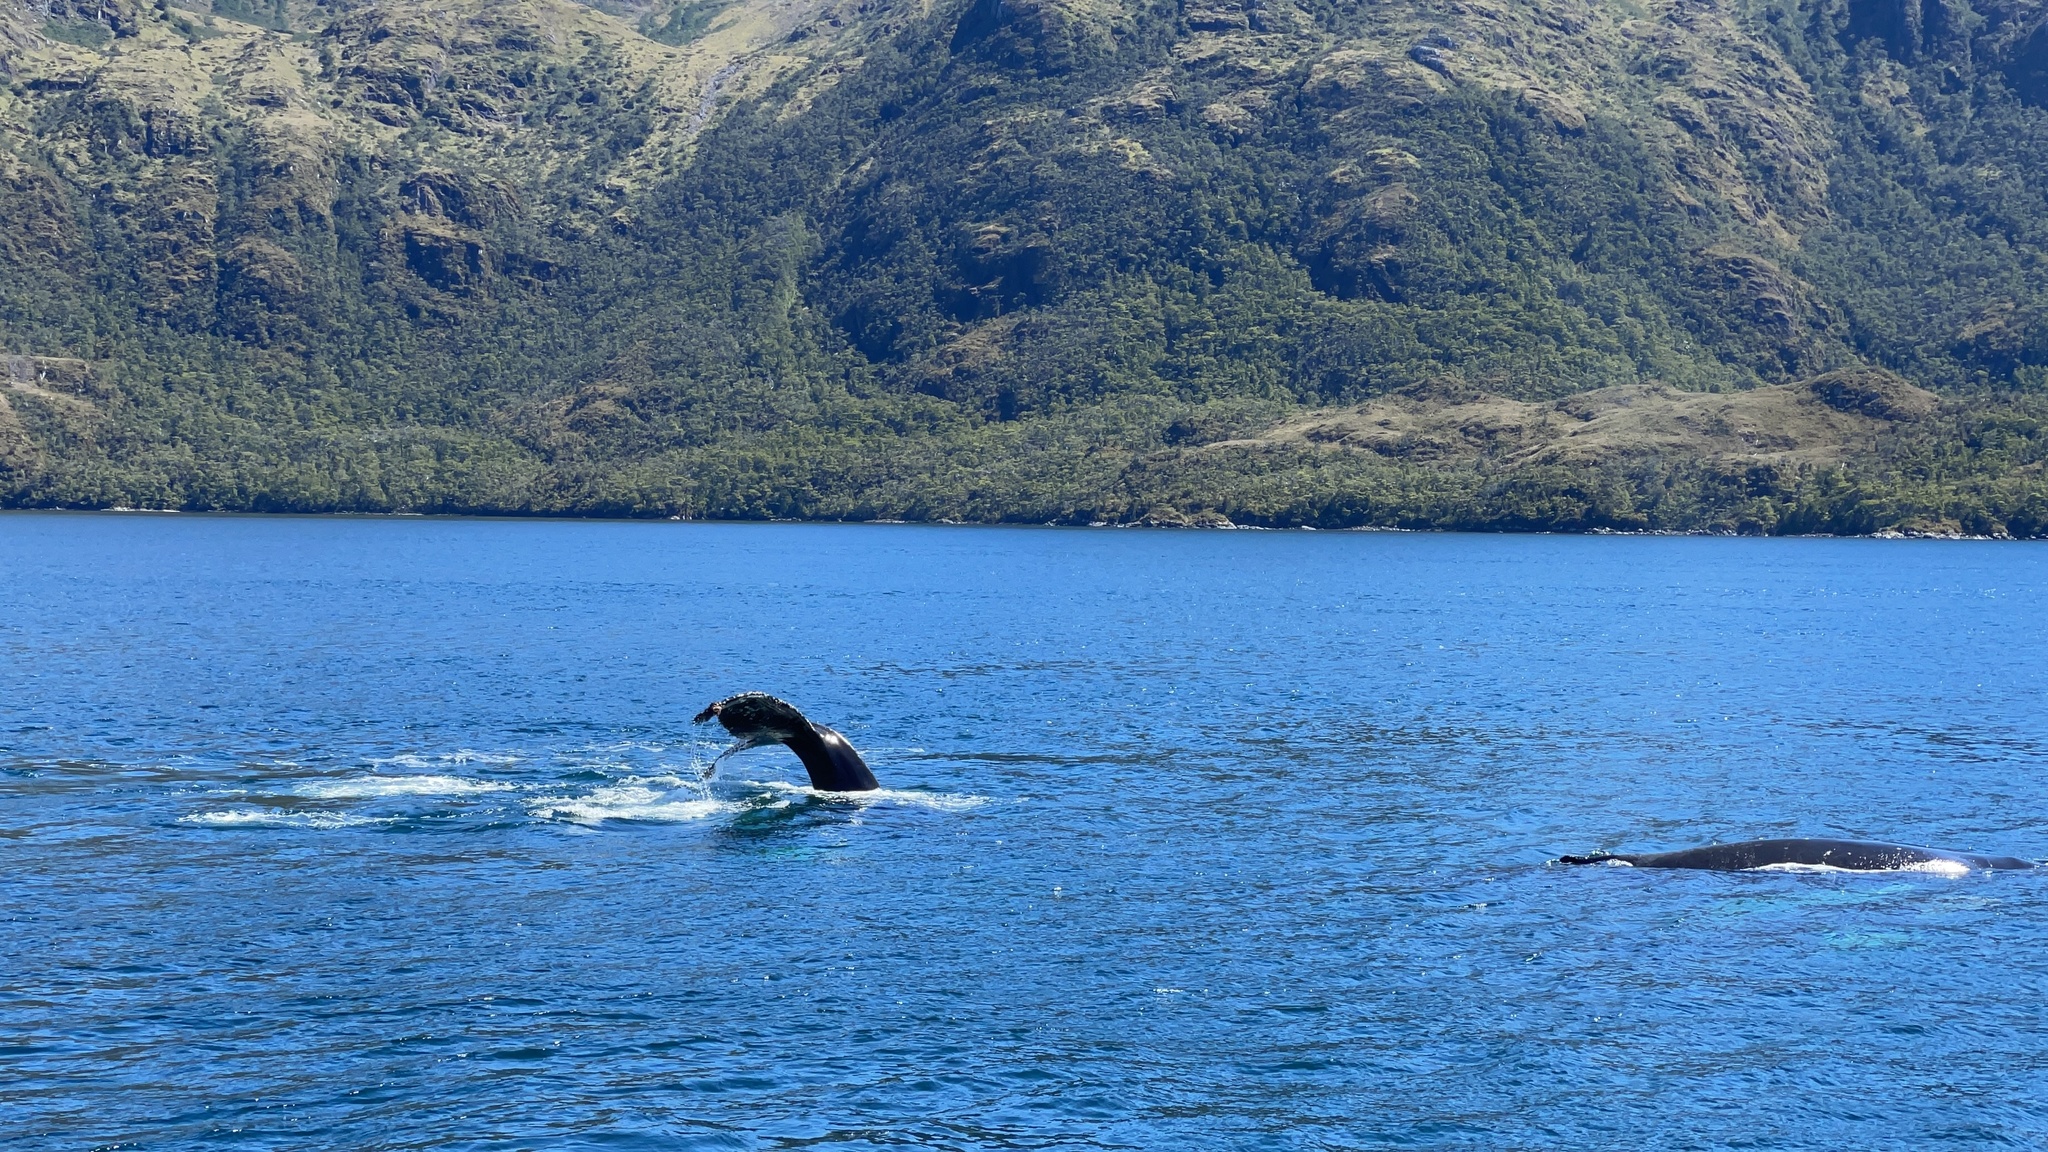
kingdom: Animalia
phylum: Chordata
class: Mammalia
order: Cetacea
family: Balaenopteridae
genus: Megaptera
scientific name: Megaptera novaeangliae
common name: Humpback whale
